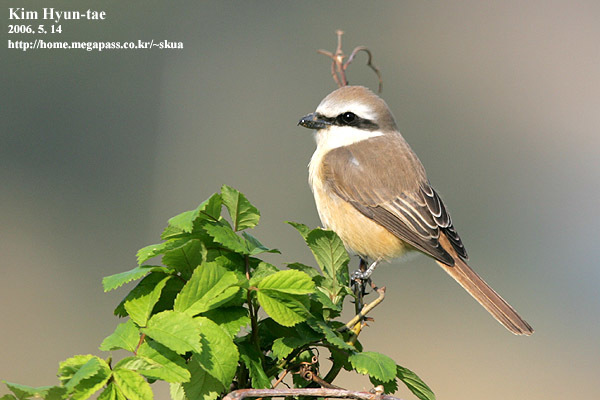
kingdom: Animalia
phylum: Chordata
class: Aves
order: Passeriformes
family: Laniidae
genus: Lanius
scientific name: Lanius cristatus
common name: Brown shrike
